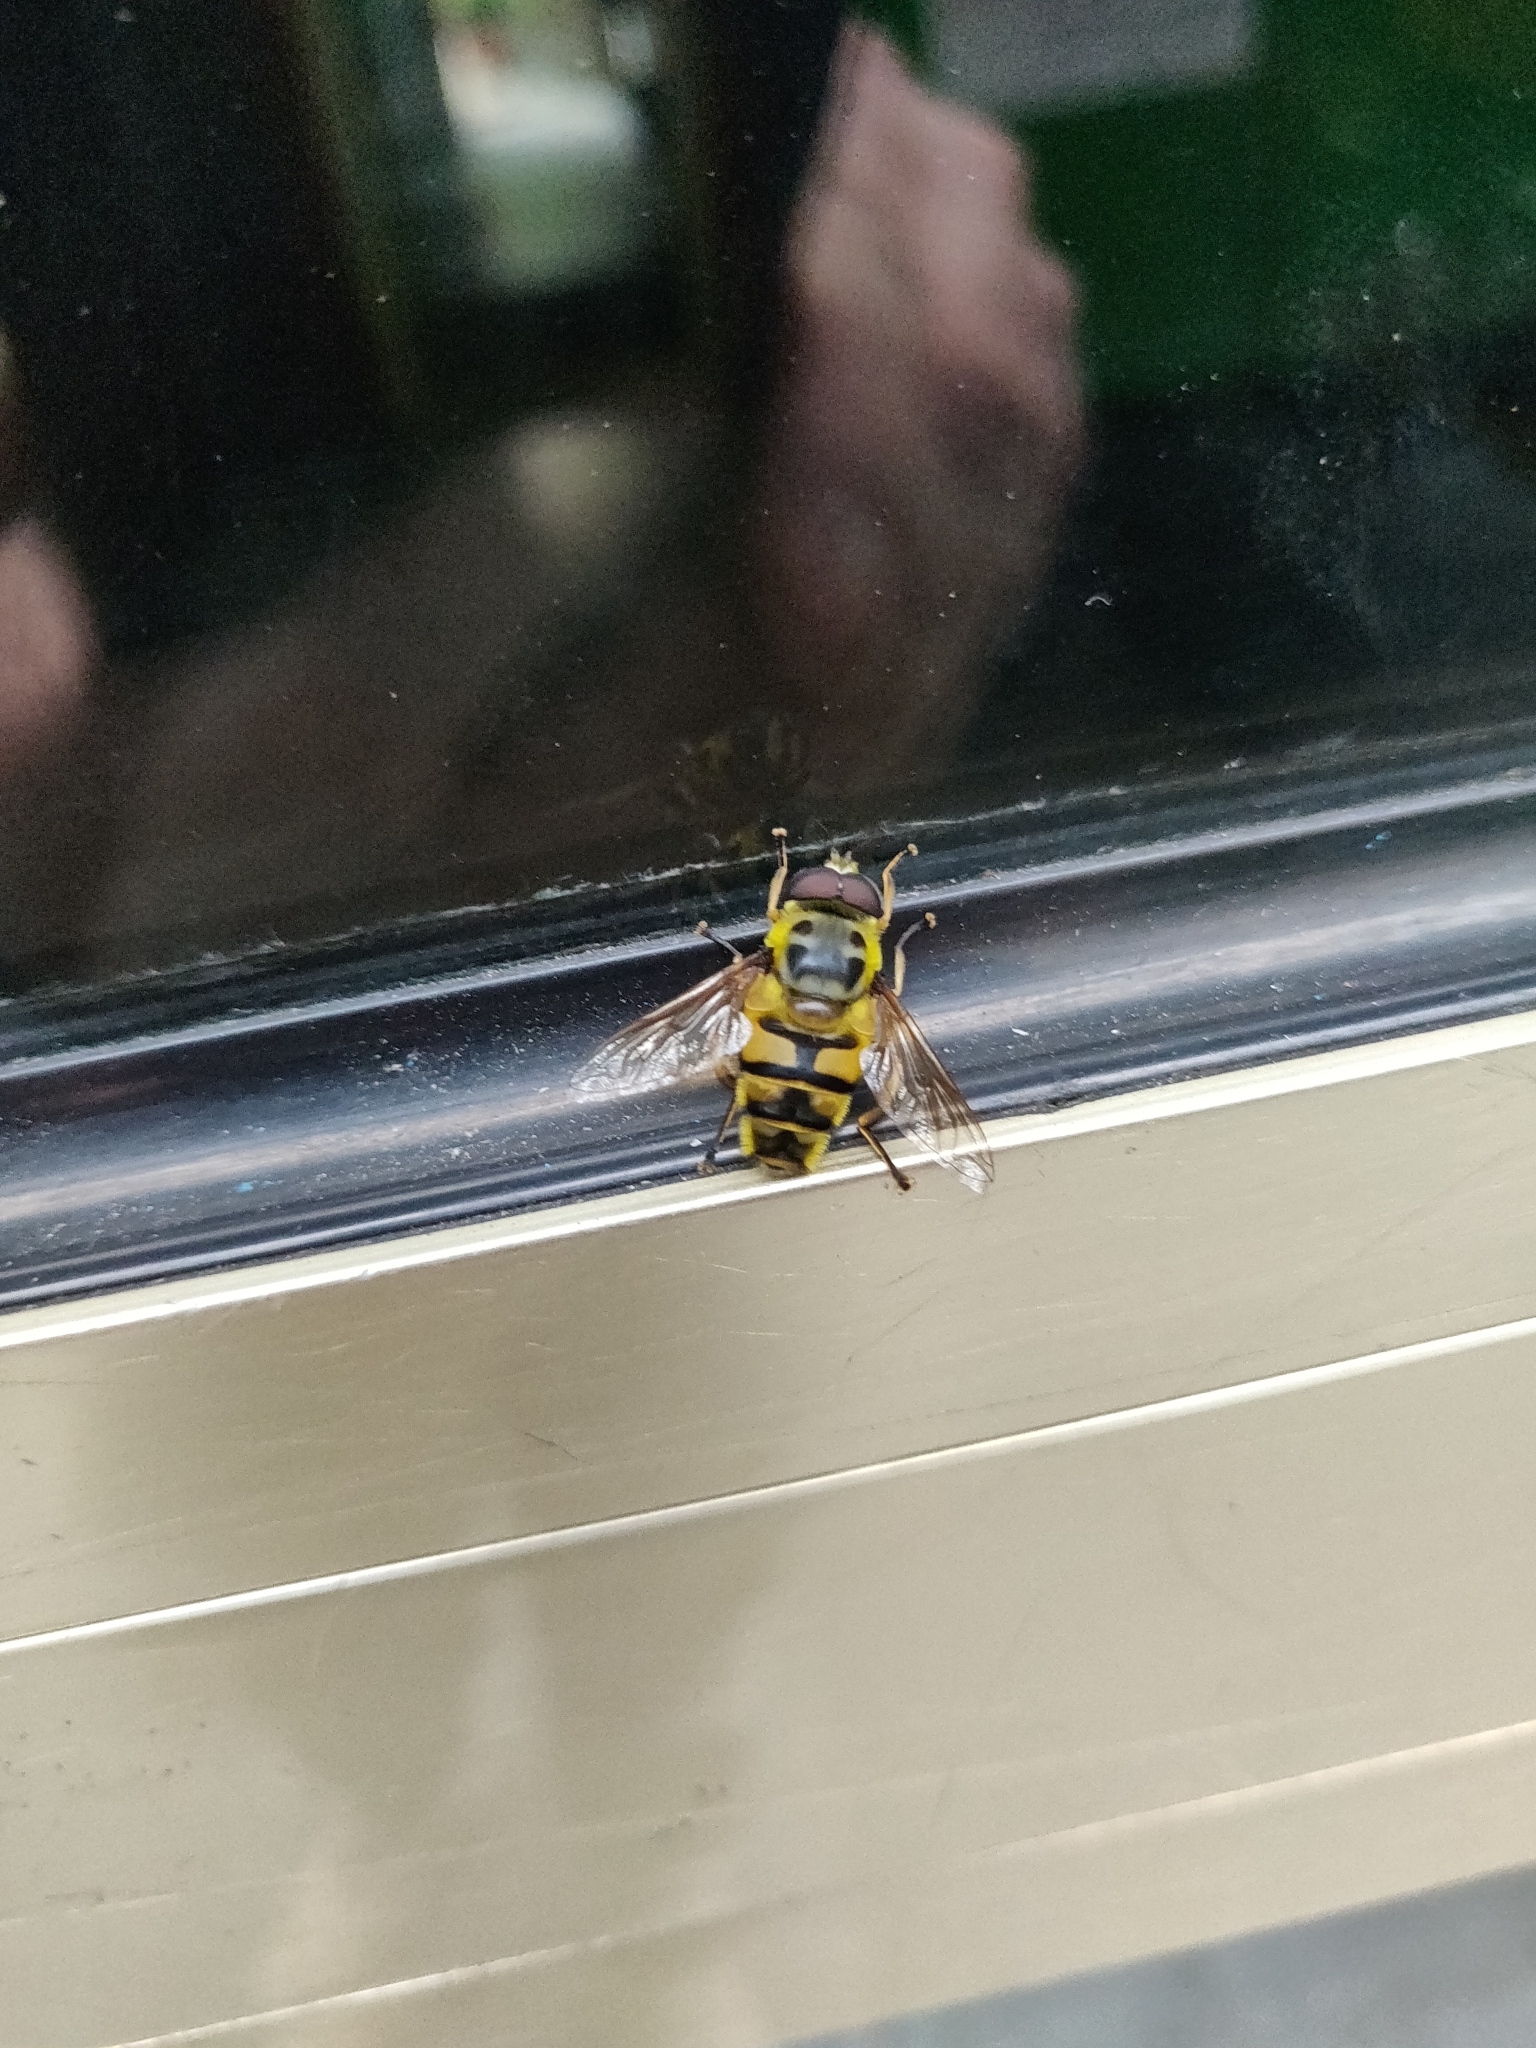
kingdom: Animalia
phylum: Arthropoda
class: Insecta
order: Diptera
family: Syrphidae
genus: Myathropa
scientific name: Myathropa florea
